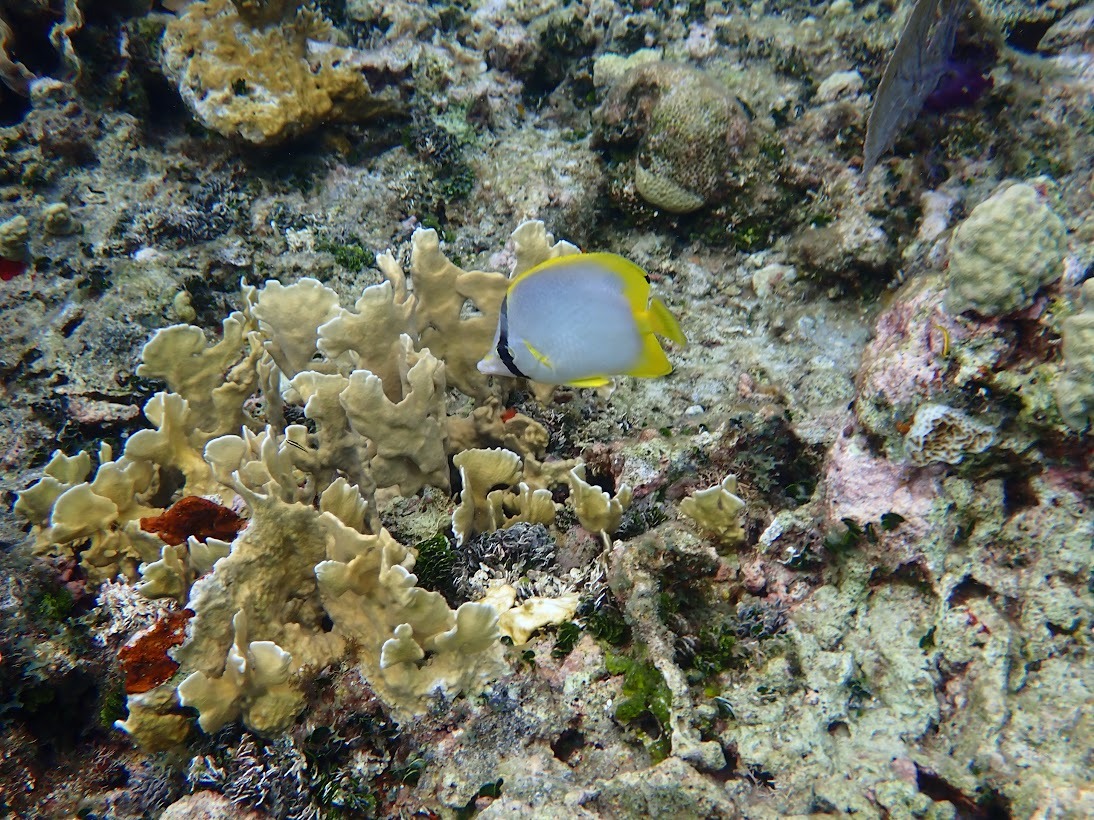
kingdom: Animalia
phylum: Chordata
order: Perciformes
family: Chaetodontidae
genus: Chaetodon
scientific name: Chaetodon ocellatus
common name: Spotfin butterflyfish
